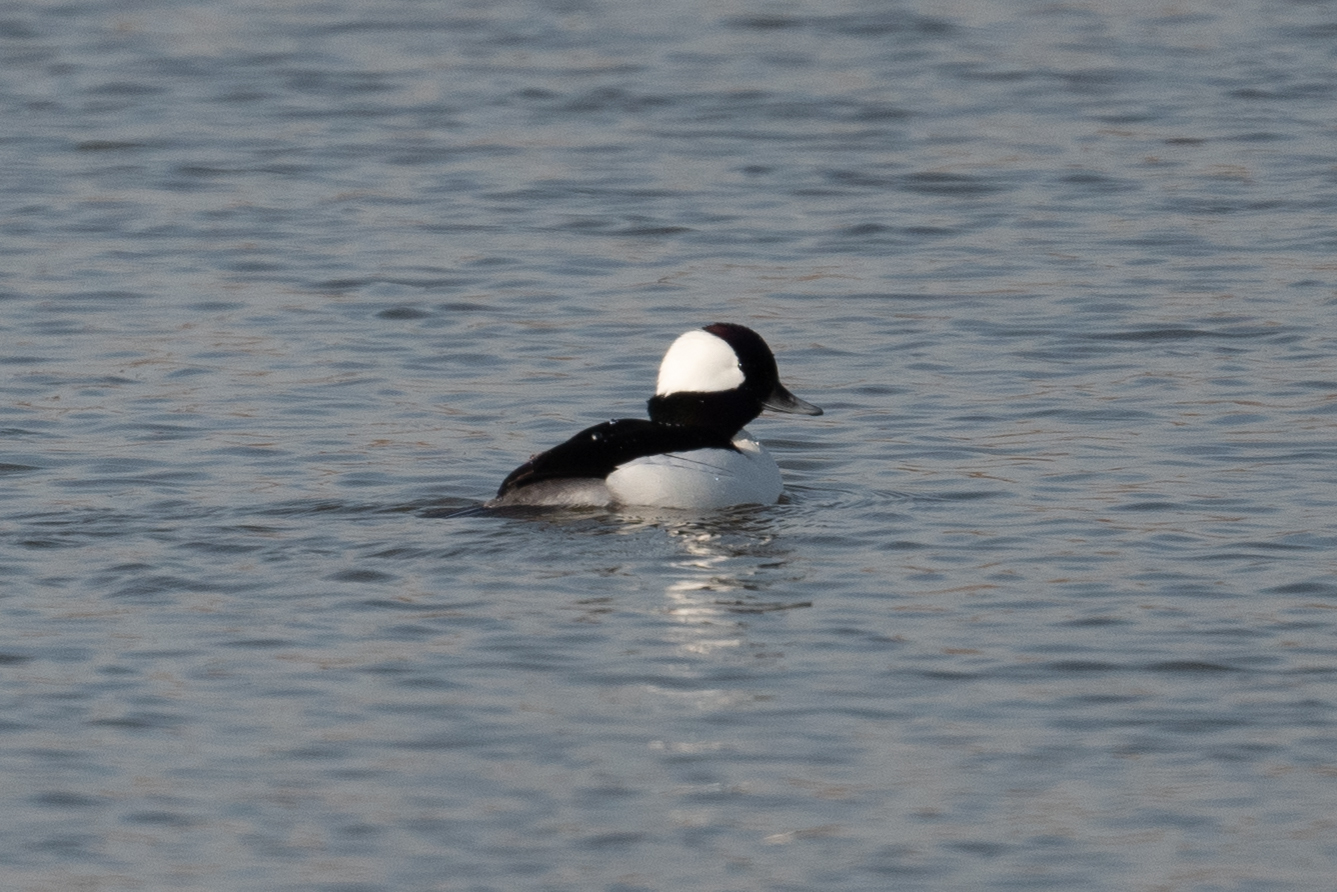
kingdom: Animalia
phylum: Chordata
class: Aves
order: Anseriformes
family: Anatidae
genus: Bucephala
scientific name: Bucephala albeola
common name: Bufflehead
